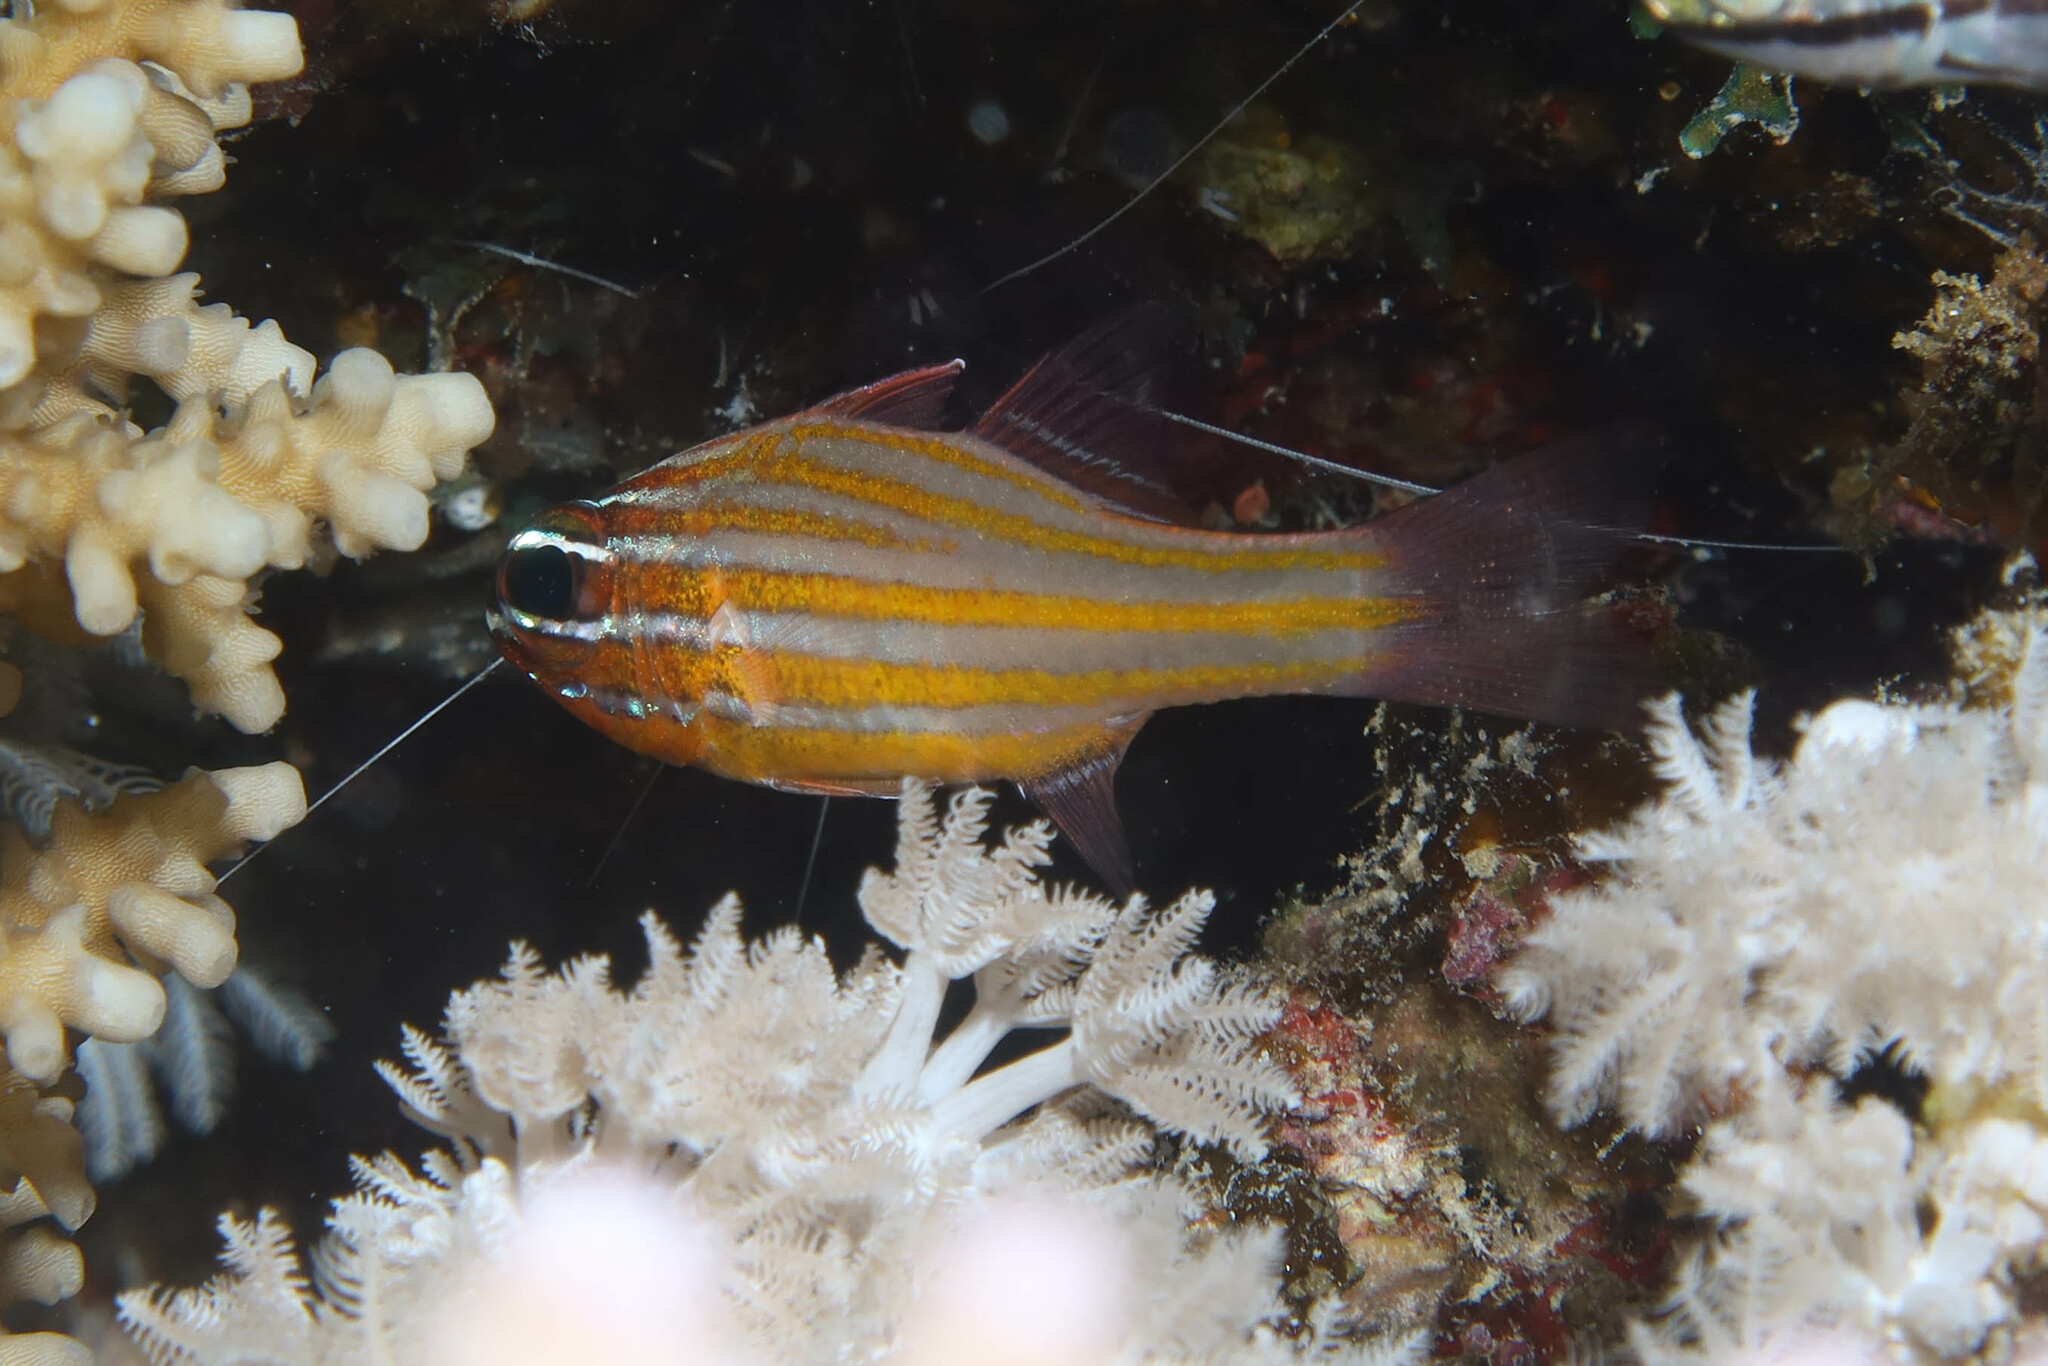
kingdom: Animalia
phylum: Chordata
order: Perciformes
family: Apogonidae
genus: Ostorhinchus
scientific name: Ostorhinchus cyanosoma
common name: Yellow-striped cardinalfish
